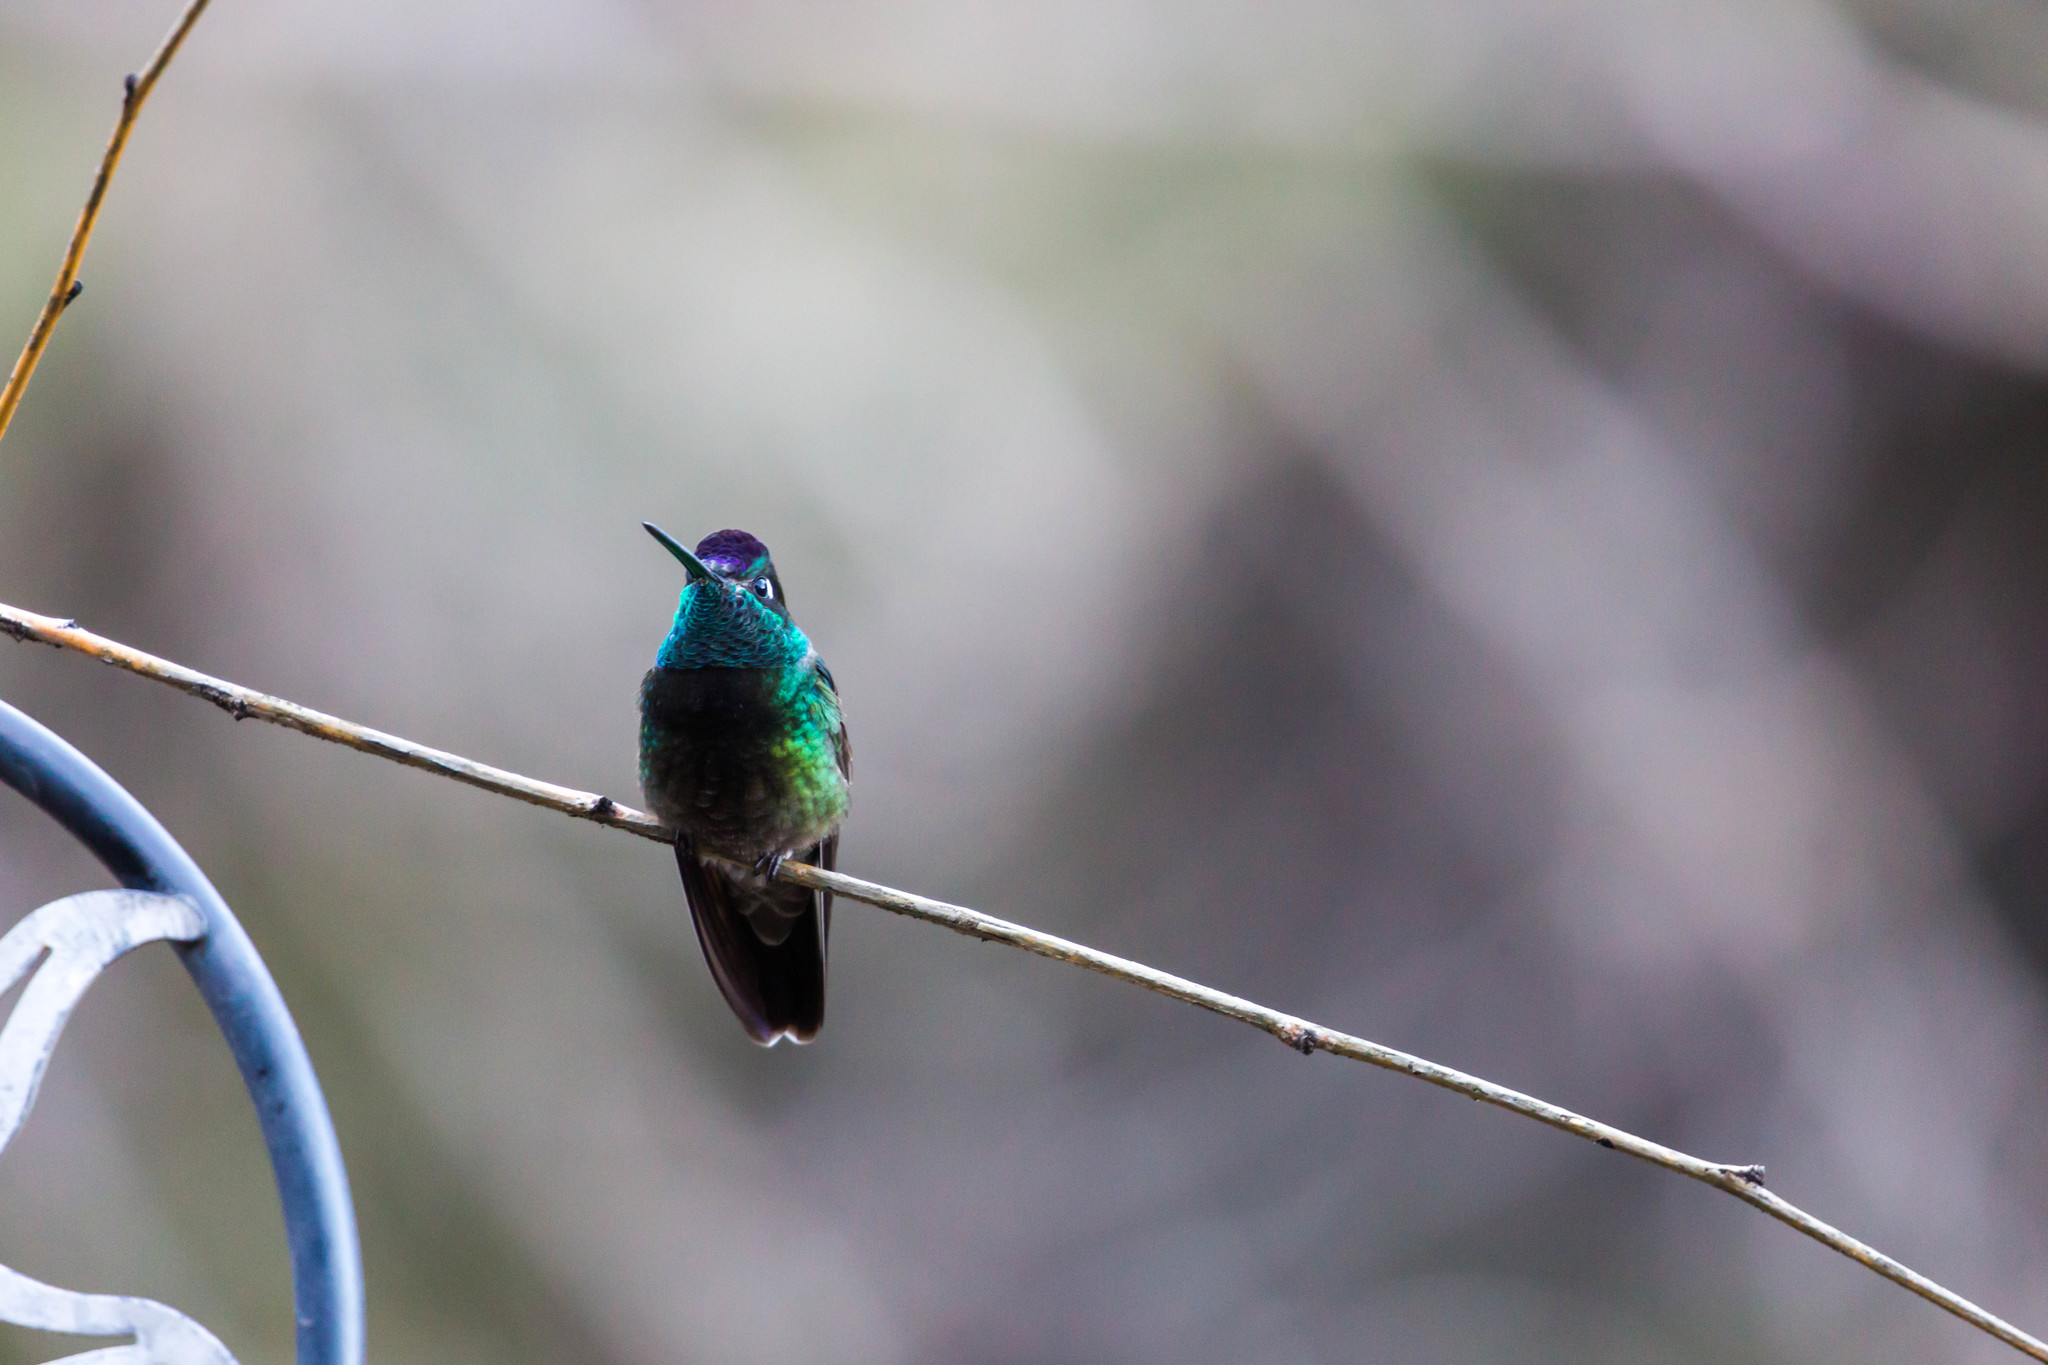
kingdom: Animalia
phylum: Chordata
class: Aves
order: Apodiformes
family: Trochilidae
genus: Eugenes
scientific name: Eugenes fulgens
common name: Magnificent hummingbird
